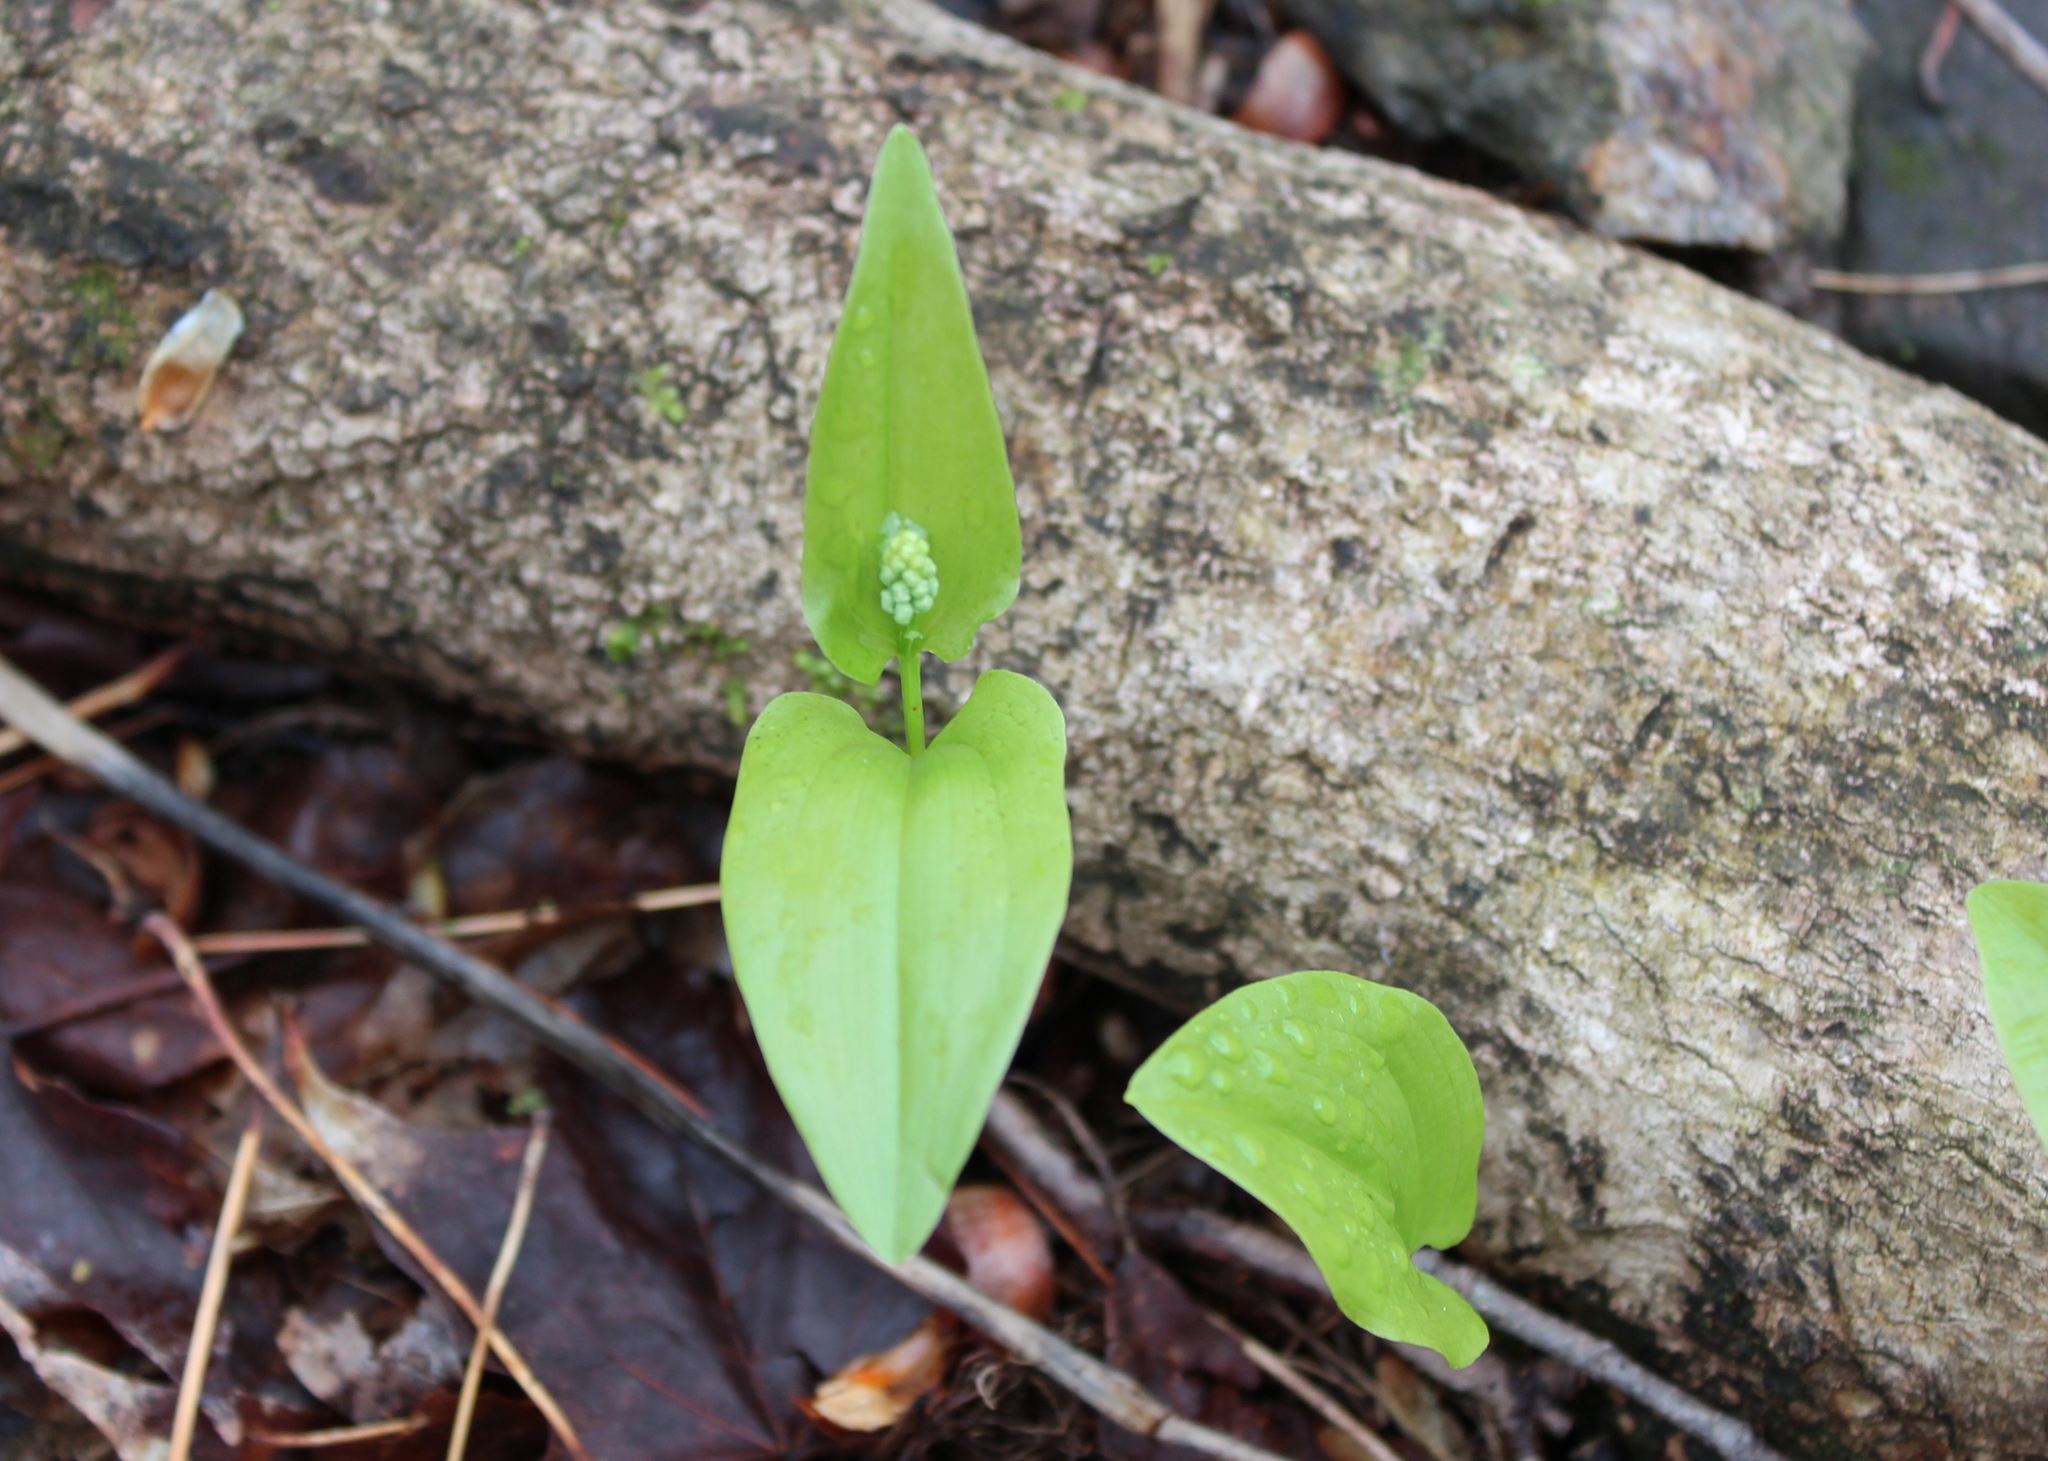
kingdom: Plantae
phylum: Tracheophyta
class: Liliopsida
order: Asparagales
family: Asparagaceae
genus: Maianthemum
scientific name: Maianthemum canadense
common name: False lily-of-the-valley
